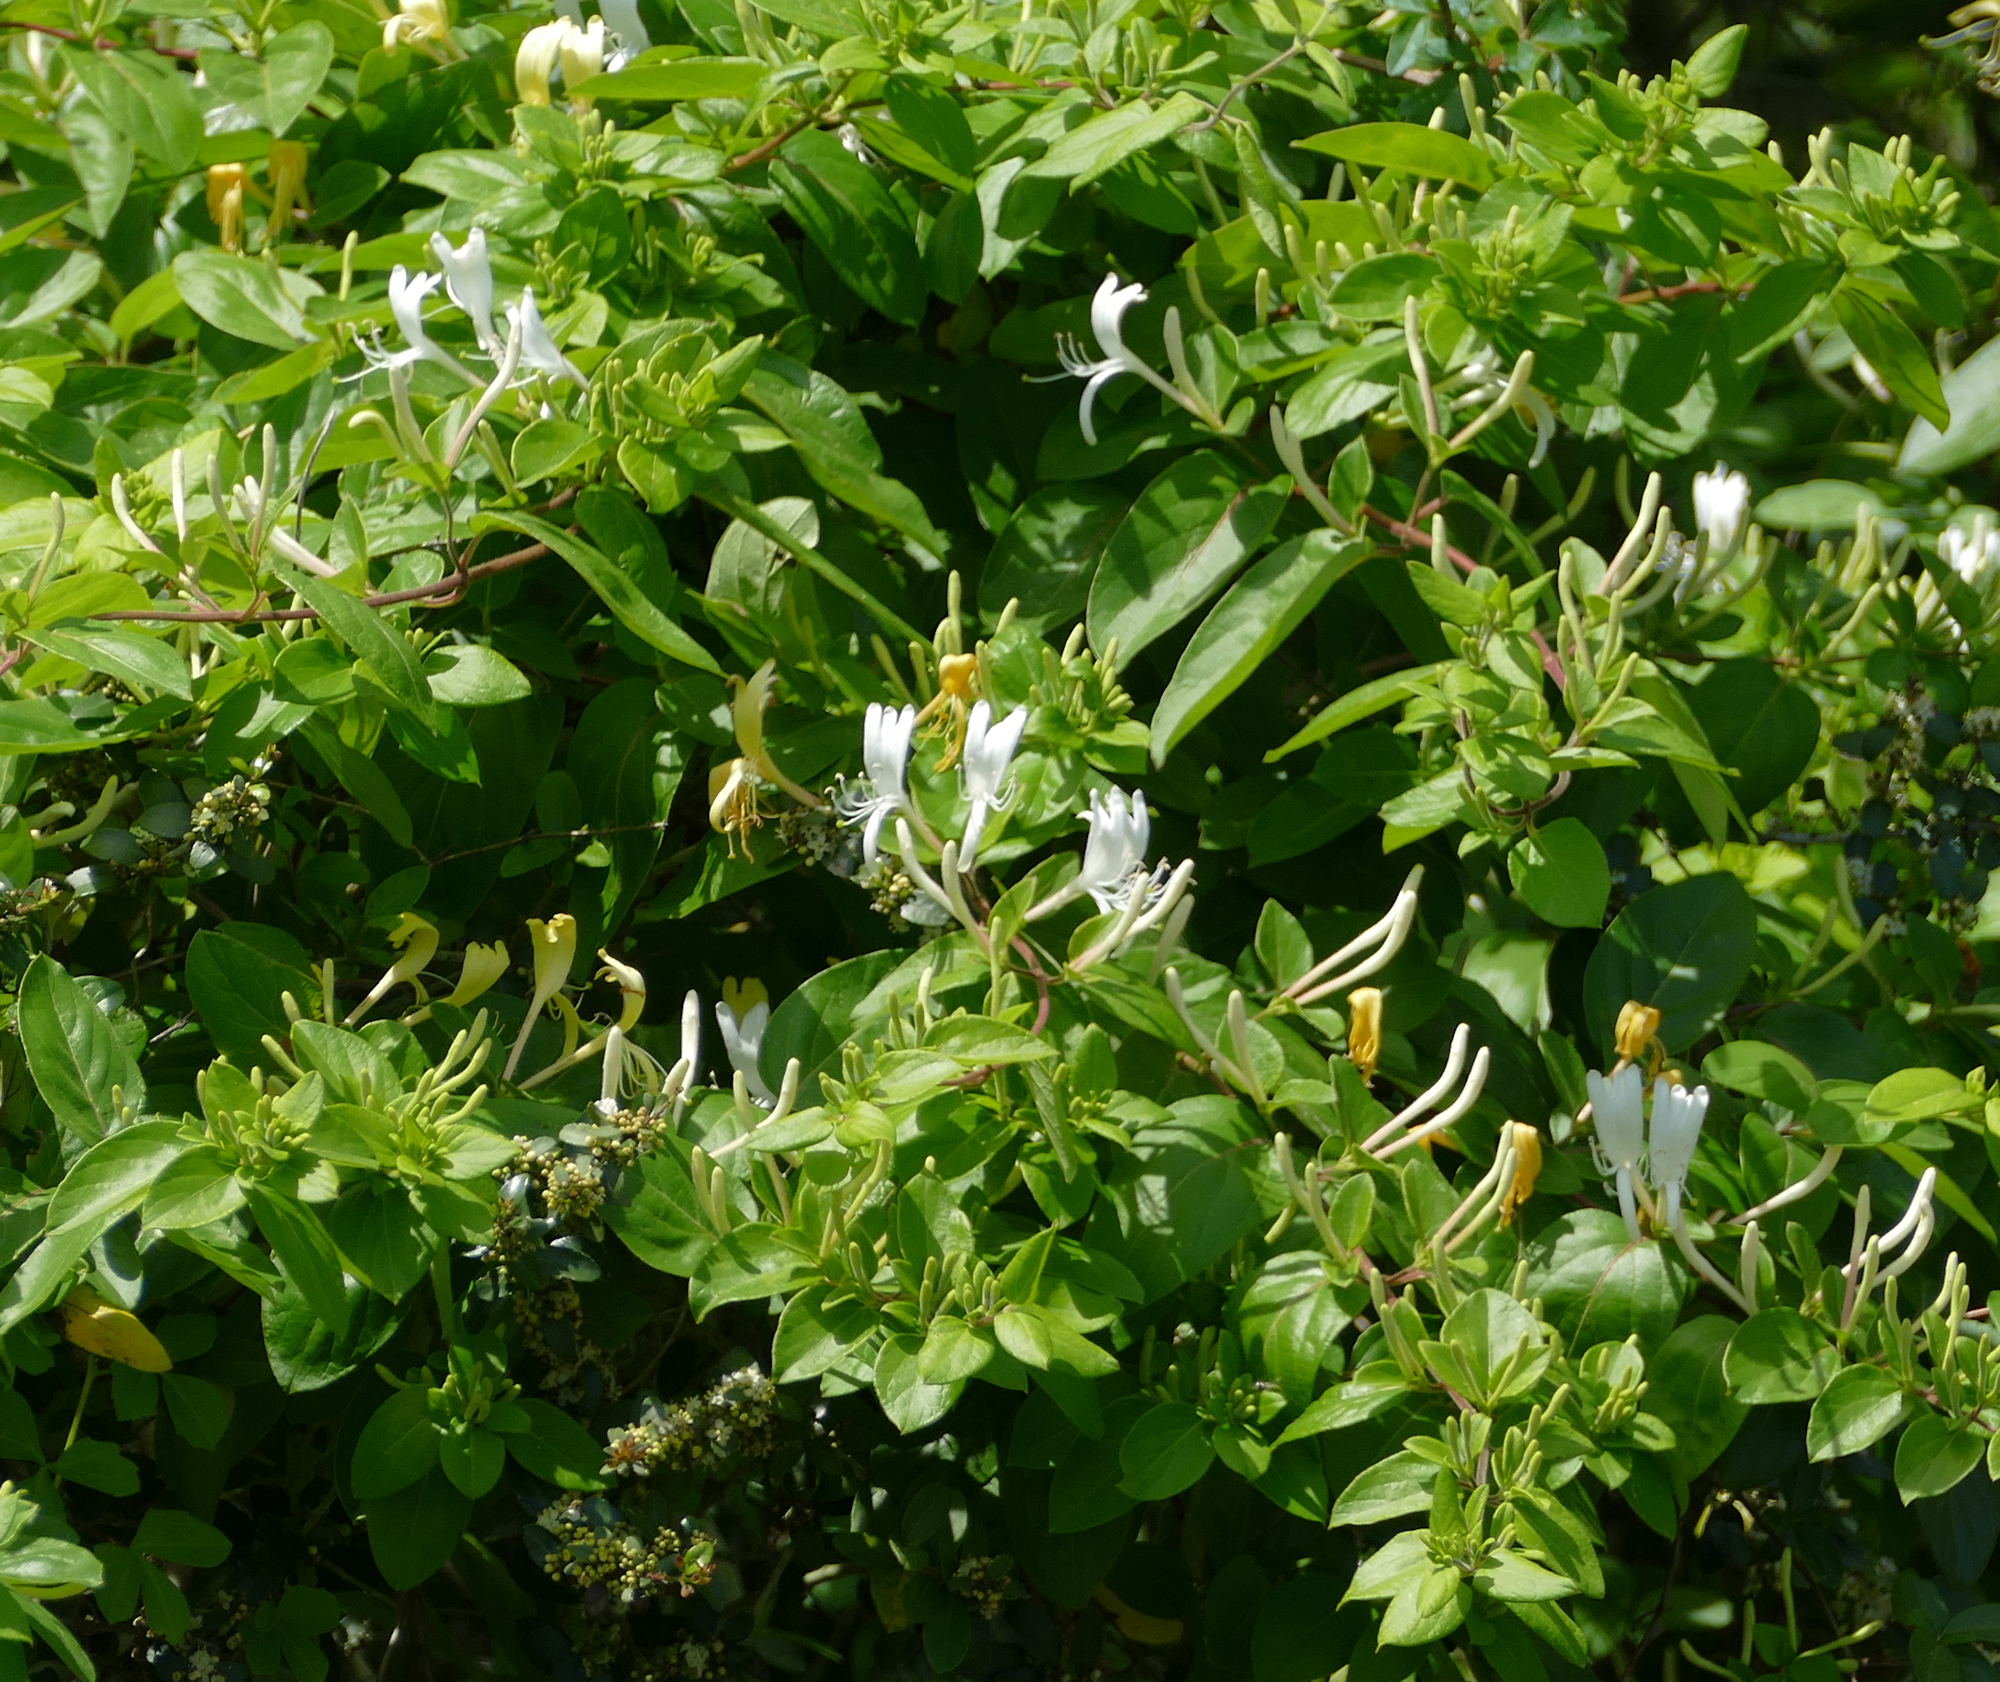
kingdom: Plantae
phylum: Tracheophyta
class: Magnoliopsida
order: Dipsacales
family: Caprifoliaceae
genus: Lonicera
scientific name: Lonicera japonica
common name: Japanese honeysuckle
